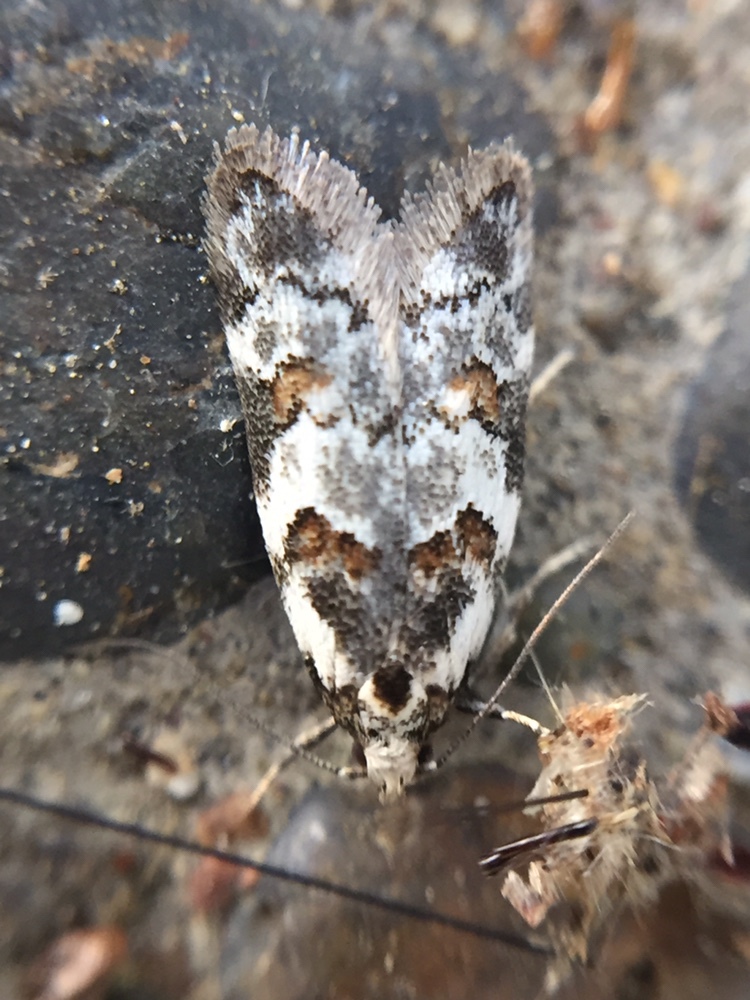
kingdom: Animalia
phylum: Arthropoda
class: Insecta
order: Lepidoptera
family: Oecophoridae
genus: Trachypepla
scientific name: Trachypepla galaxias
